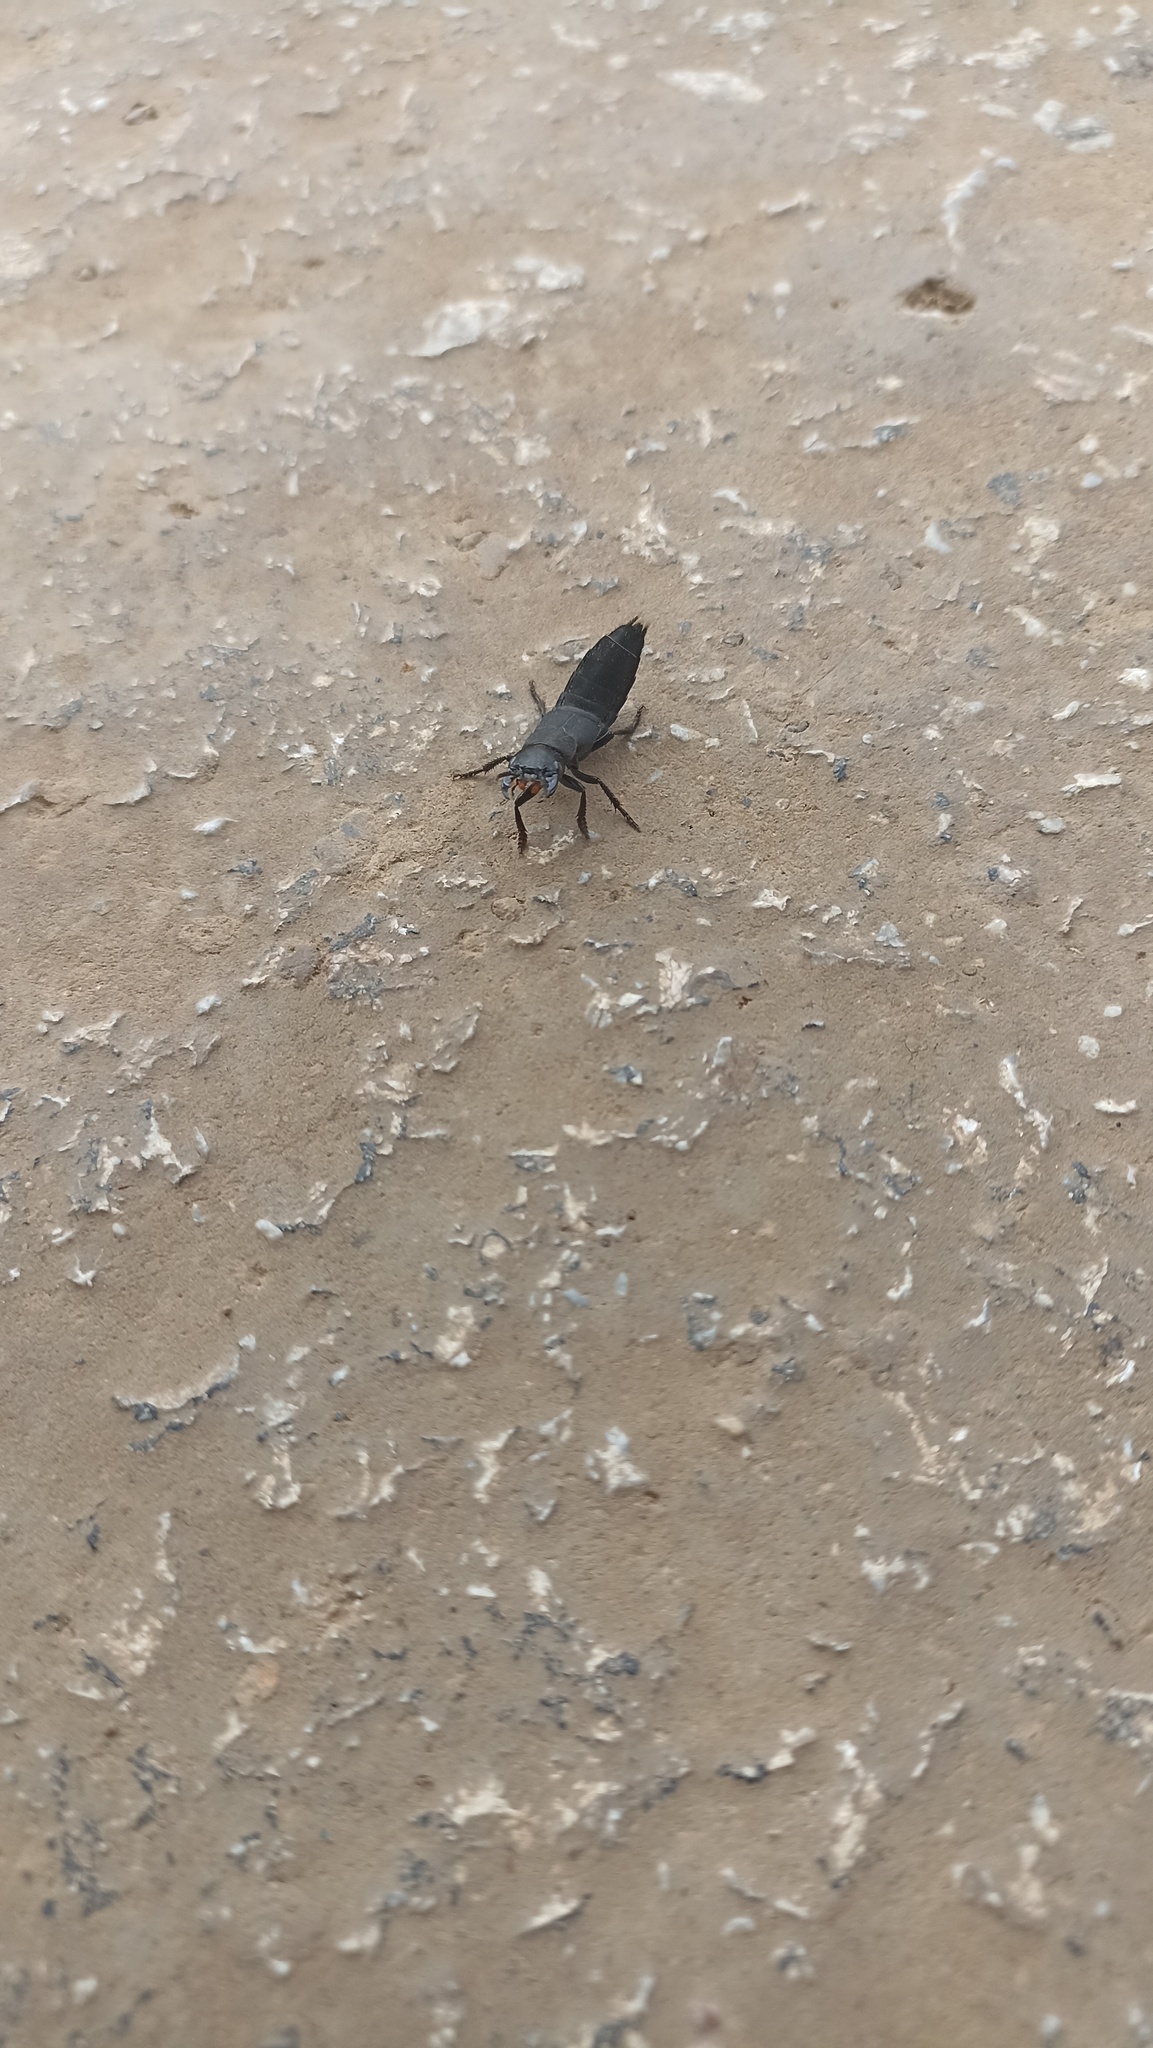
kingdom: Animalia
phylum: Arthropoda
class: Insecta
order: Coleoptera
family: Staphylinidae
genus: Ocypus
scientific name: Ocypus olens
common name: Devil's coach-horse
